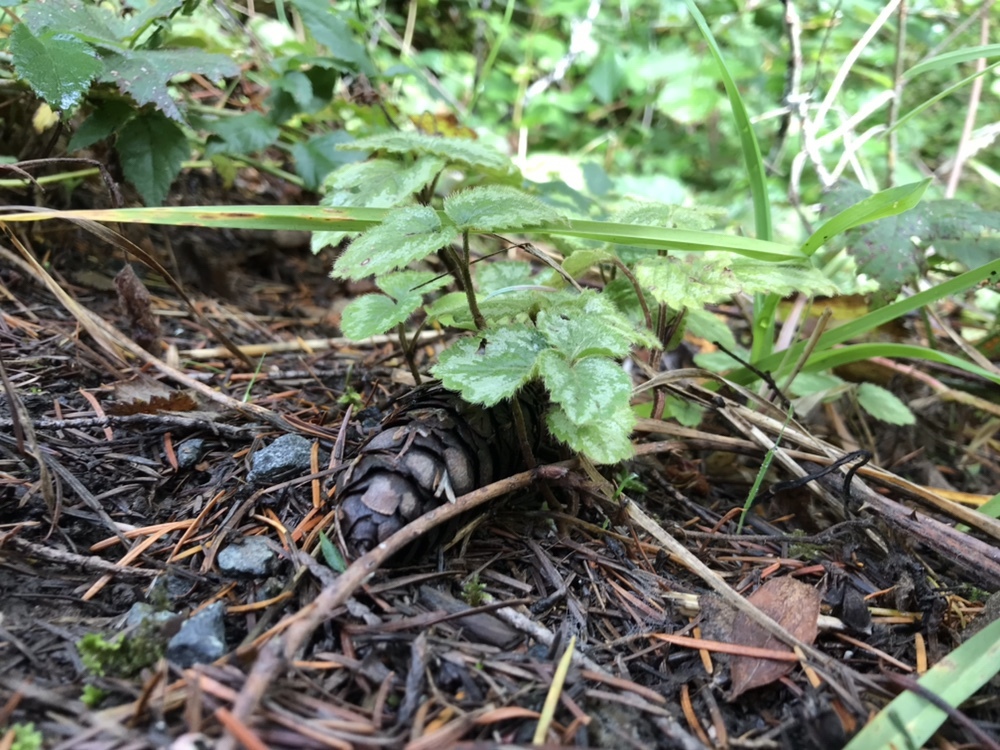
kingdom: Plantae
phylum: Tracheophyta
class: Magnoliopsida
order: Lamiales
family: Lamiaceae
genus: Lamium
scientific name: Lamium galeobdolon
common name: Yellow archangel
